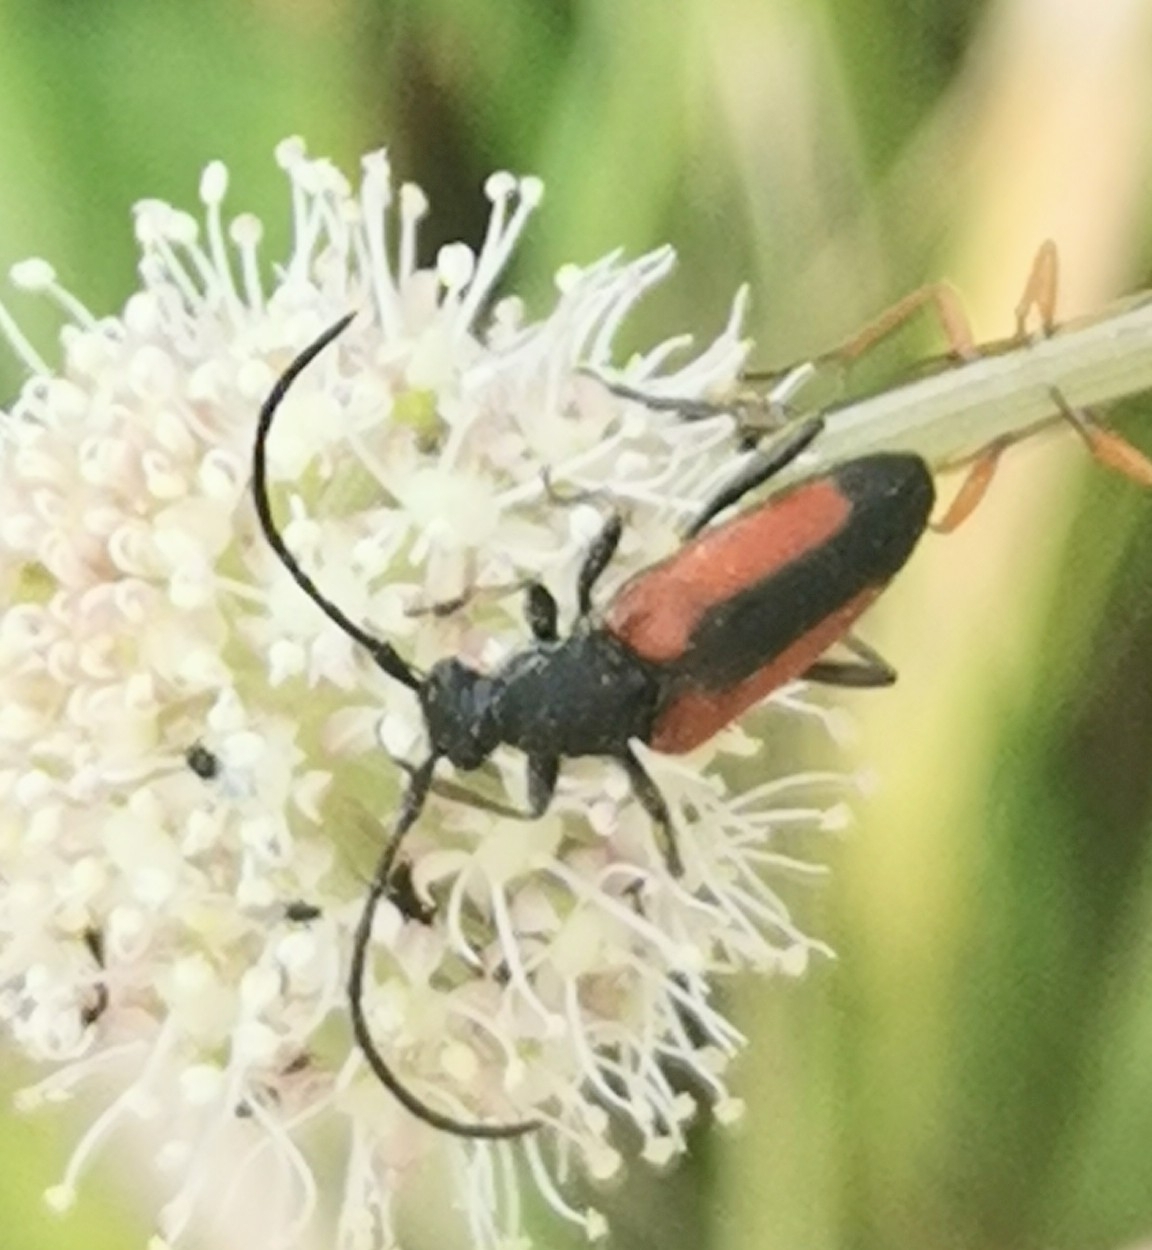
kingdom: Animalia
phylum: Arthropoda
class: Insecta
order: Coleoptera
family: Cerambycidae
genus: Stenurella
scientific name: Stenurella melanura
